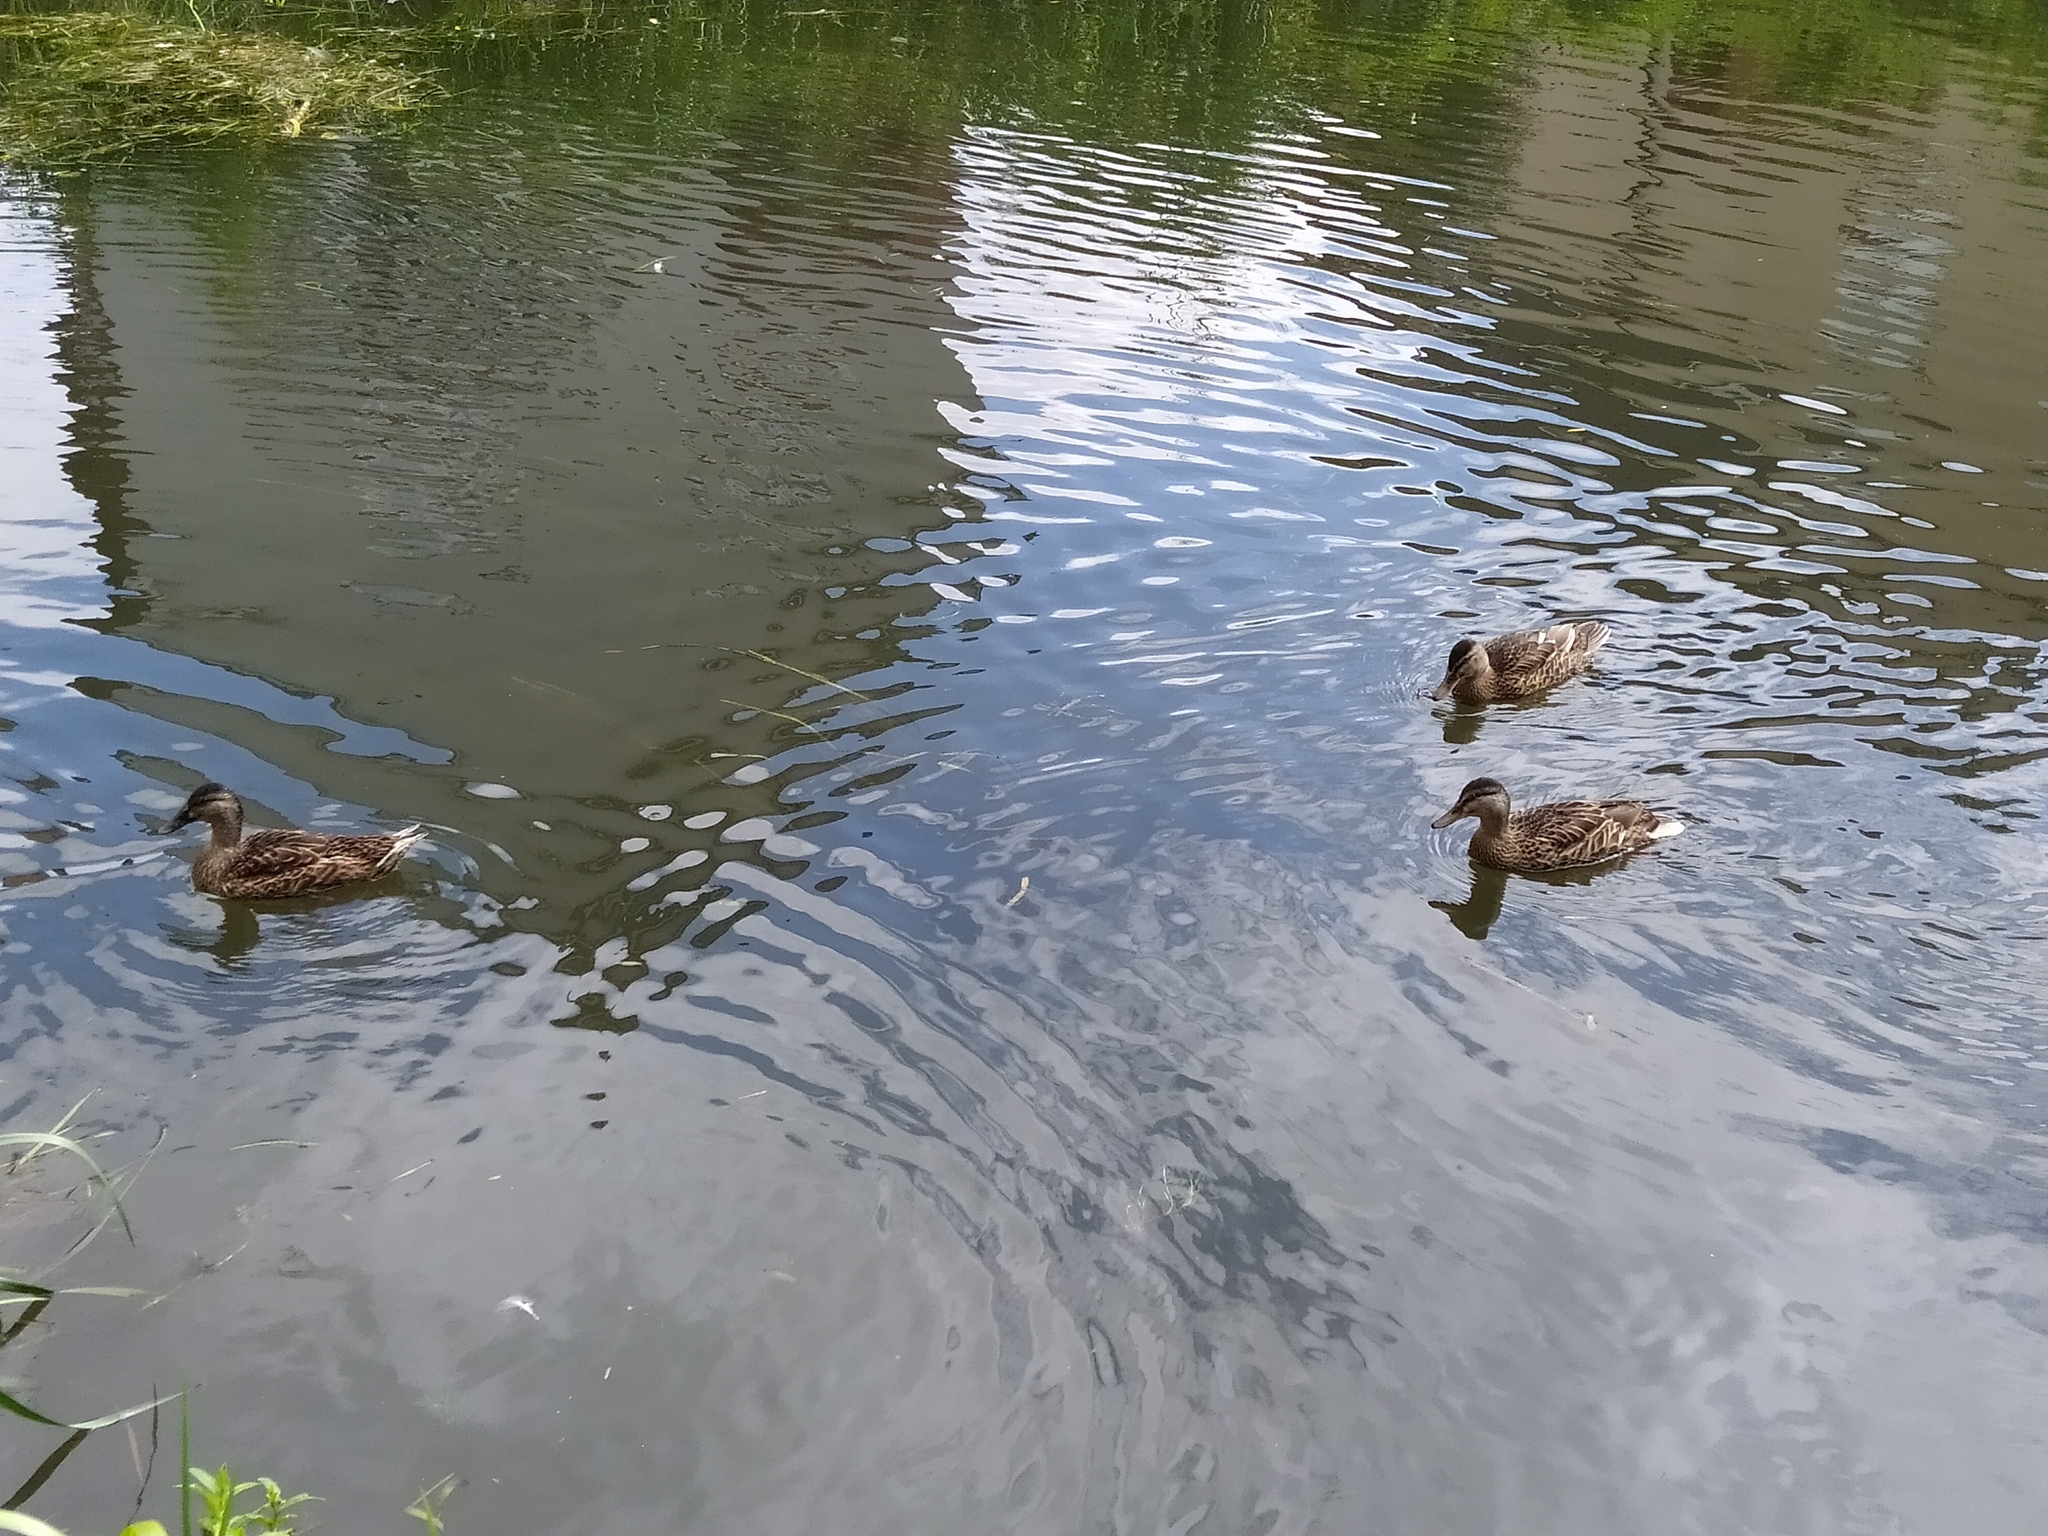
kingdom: Animalia
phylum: Chordata
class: Aves
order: Anseriformes
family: Anatidae
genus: Anas
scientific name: Anas platyrhynchos
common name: Mallard
